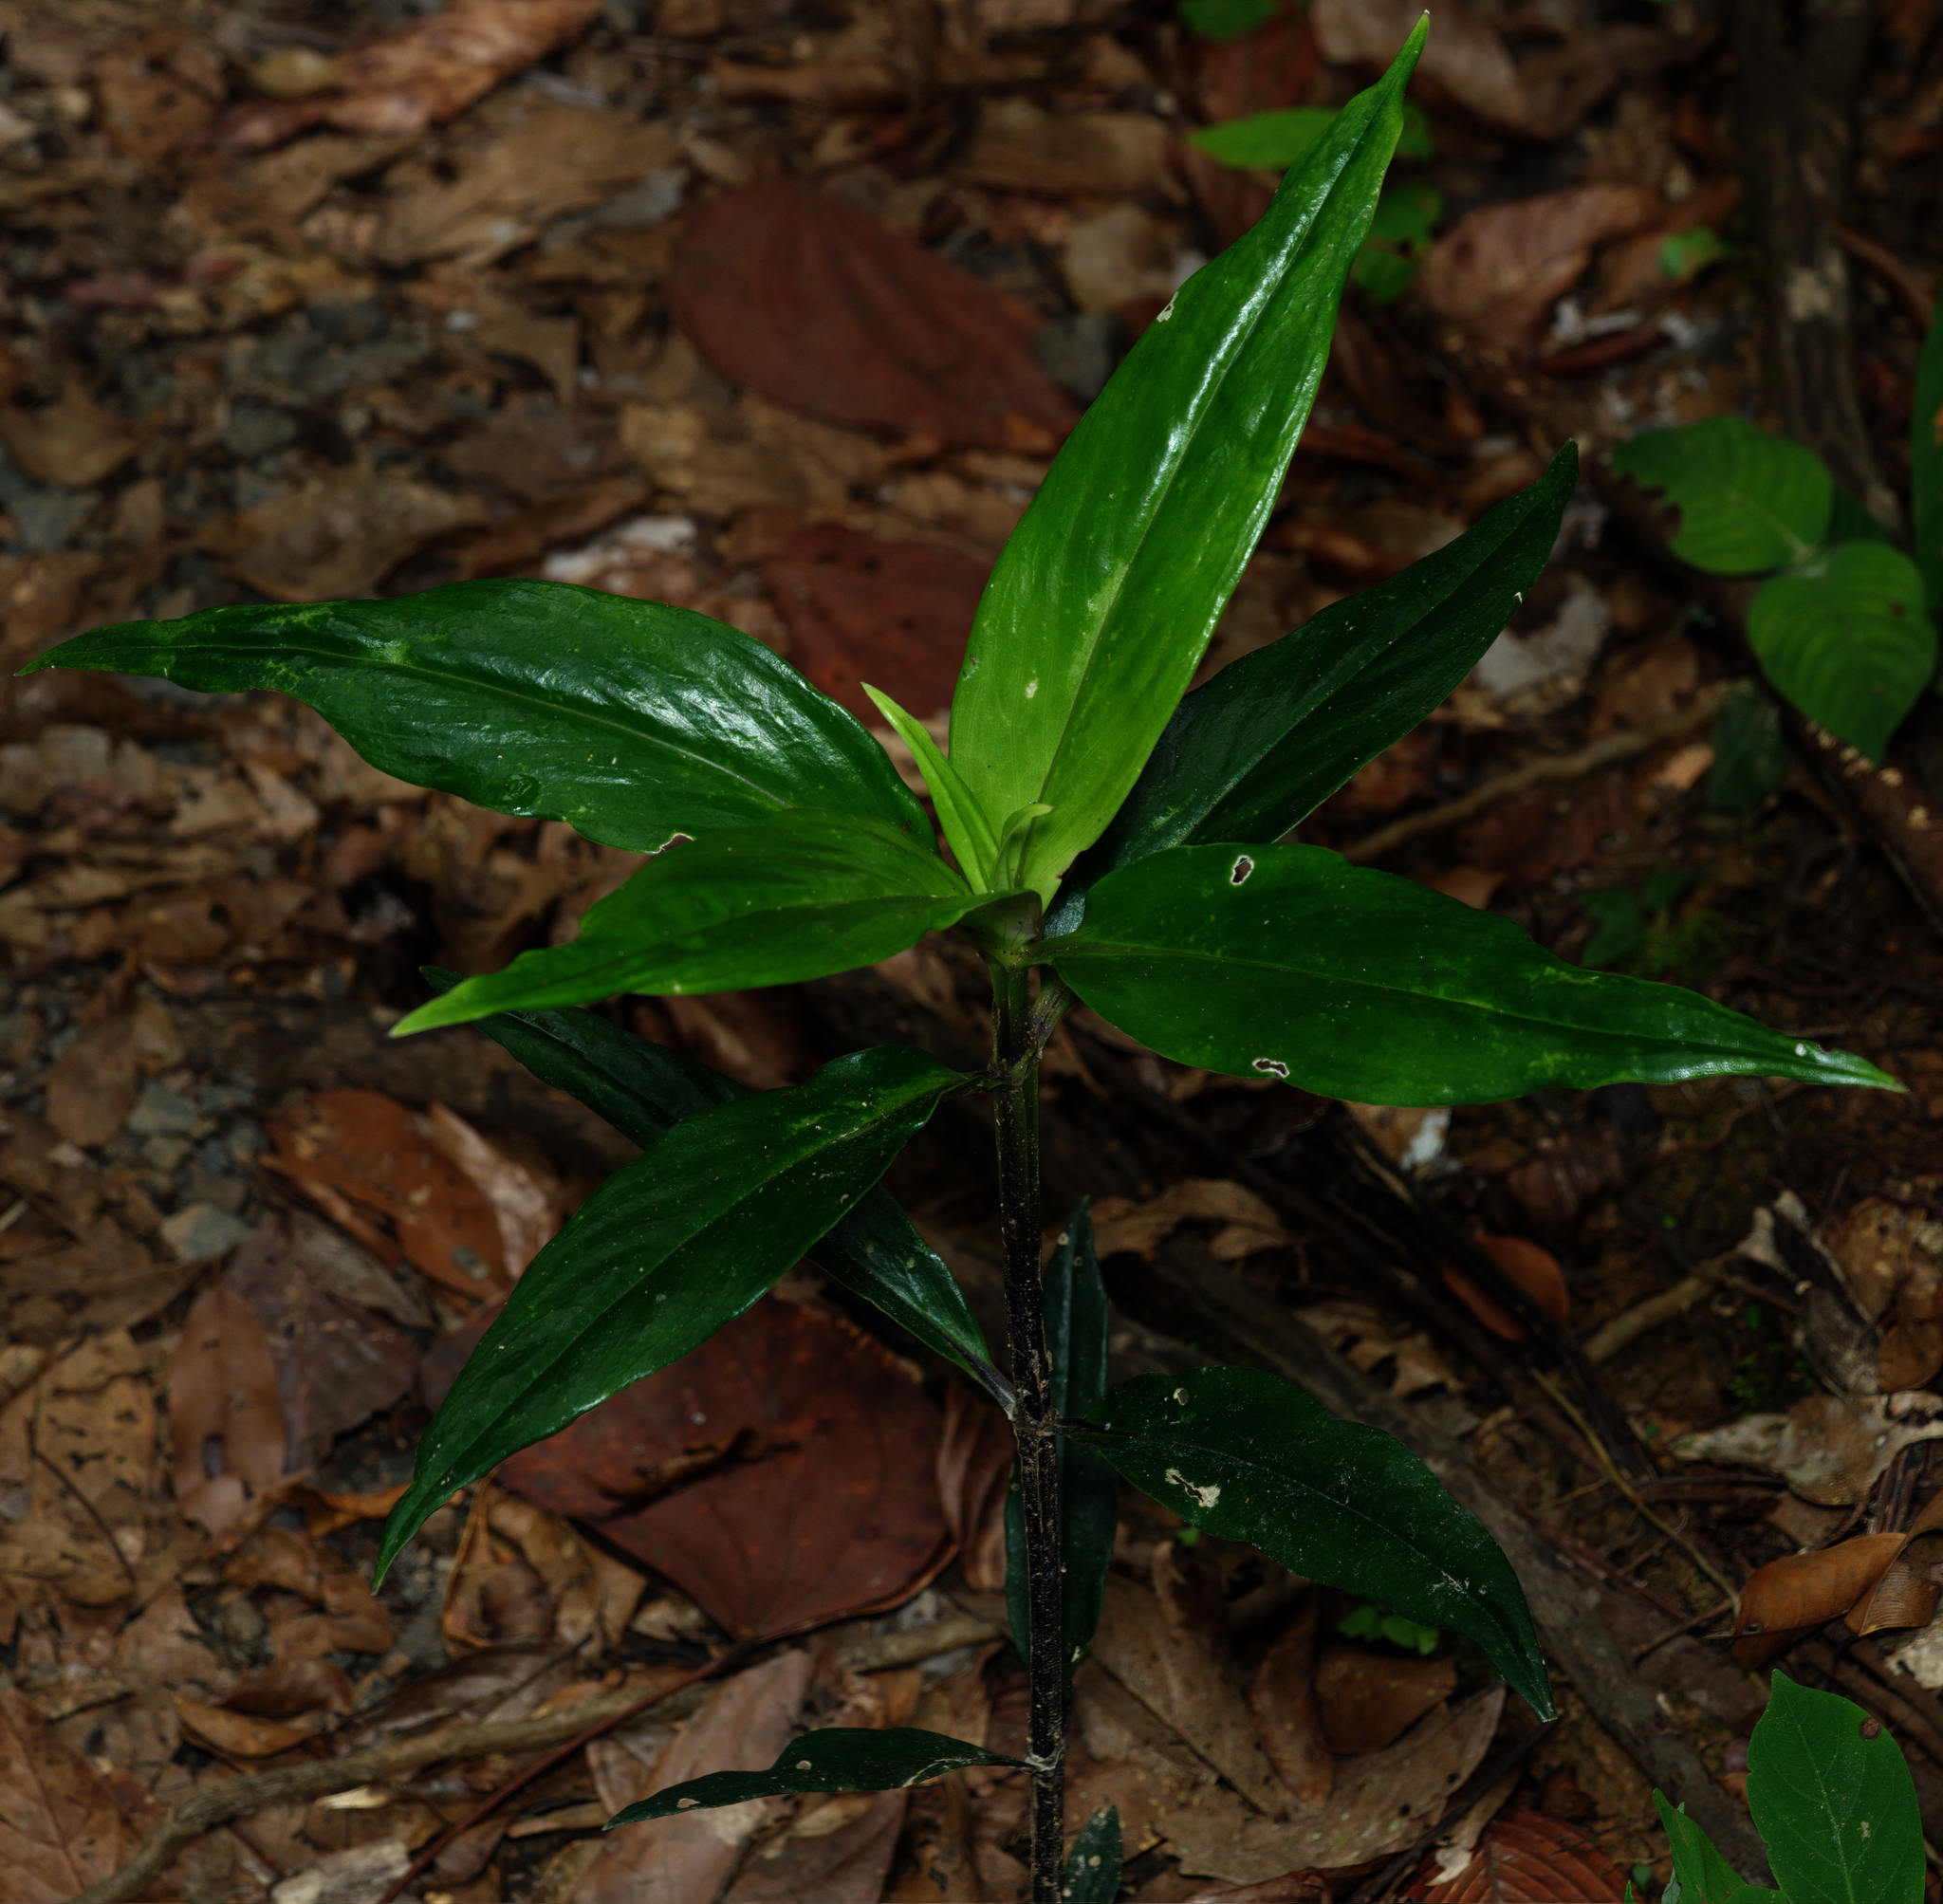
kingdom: Plantae
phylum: Tracheophyta
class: Magnoliopsida
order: Gentianales
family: Rubiaceae
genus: Exallage
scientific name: Exallage cristata
